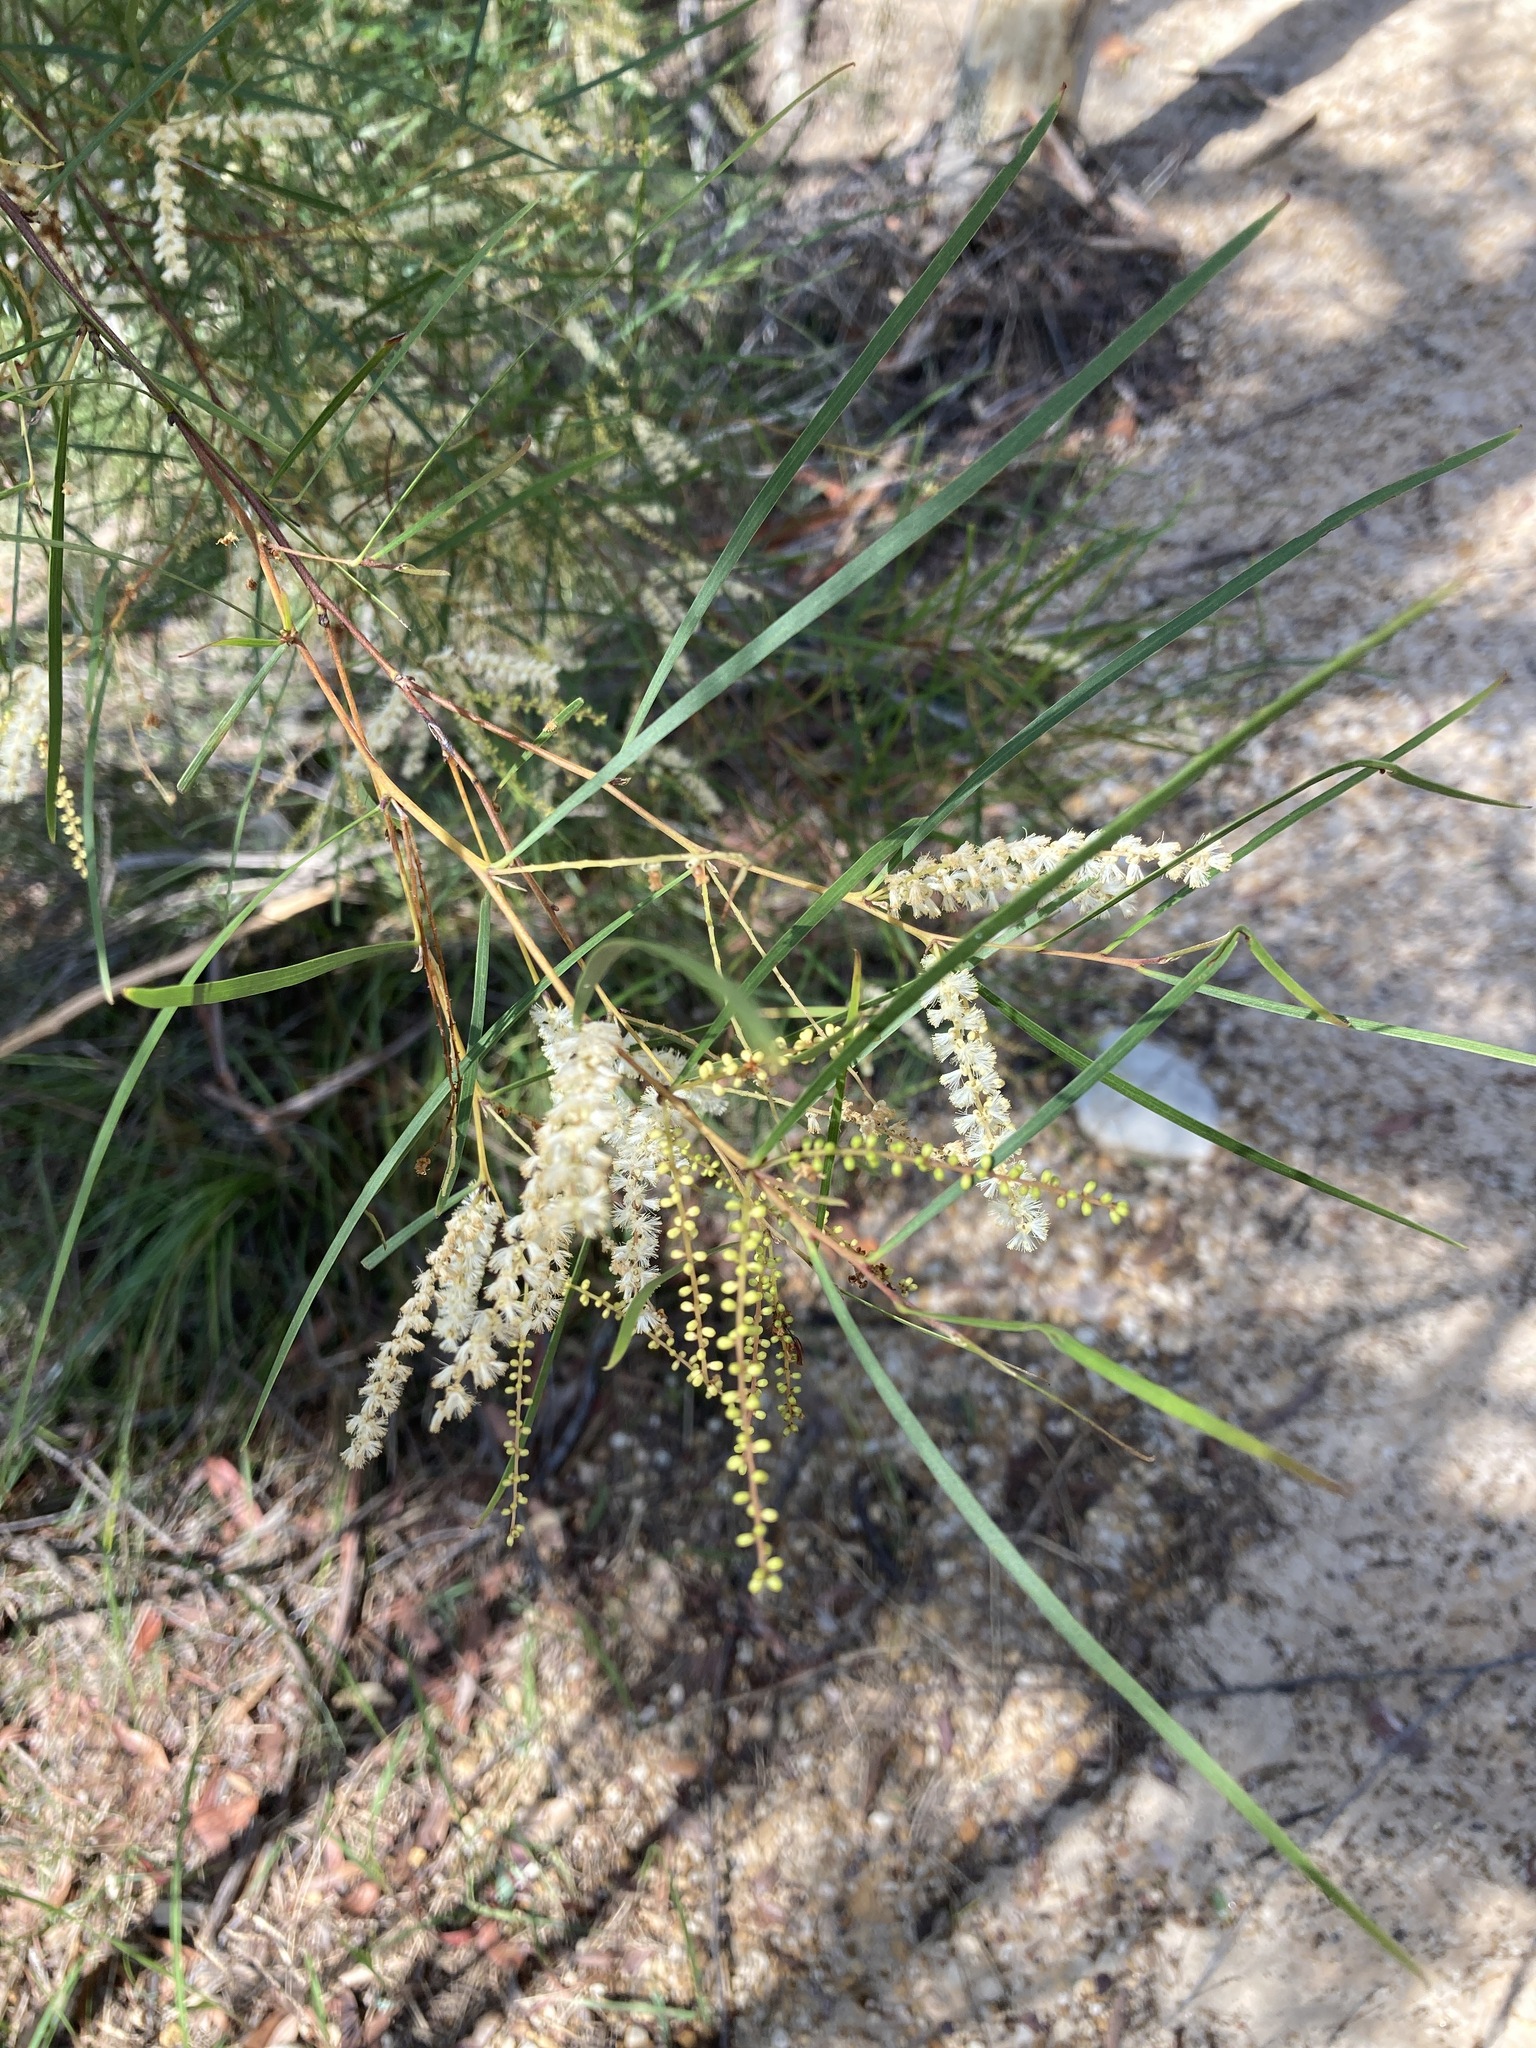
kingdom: Plantae
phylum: Tracheophyta
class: Magnoliopsida
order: Fabales
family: Fabaceae
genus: Acacia
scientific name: Acacia longissima
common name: Longleaf wattle
